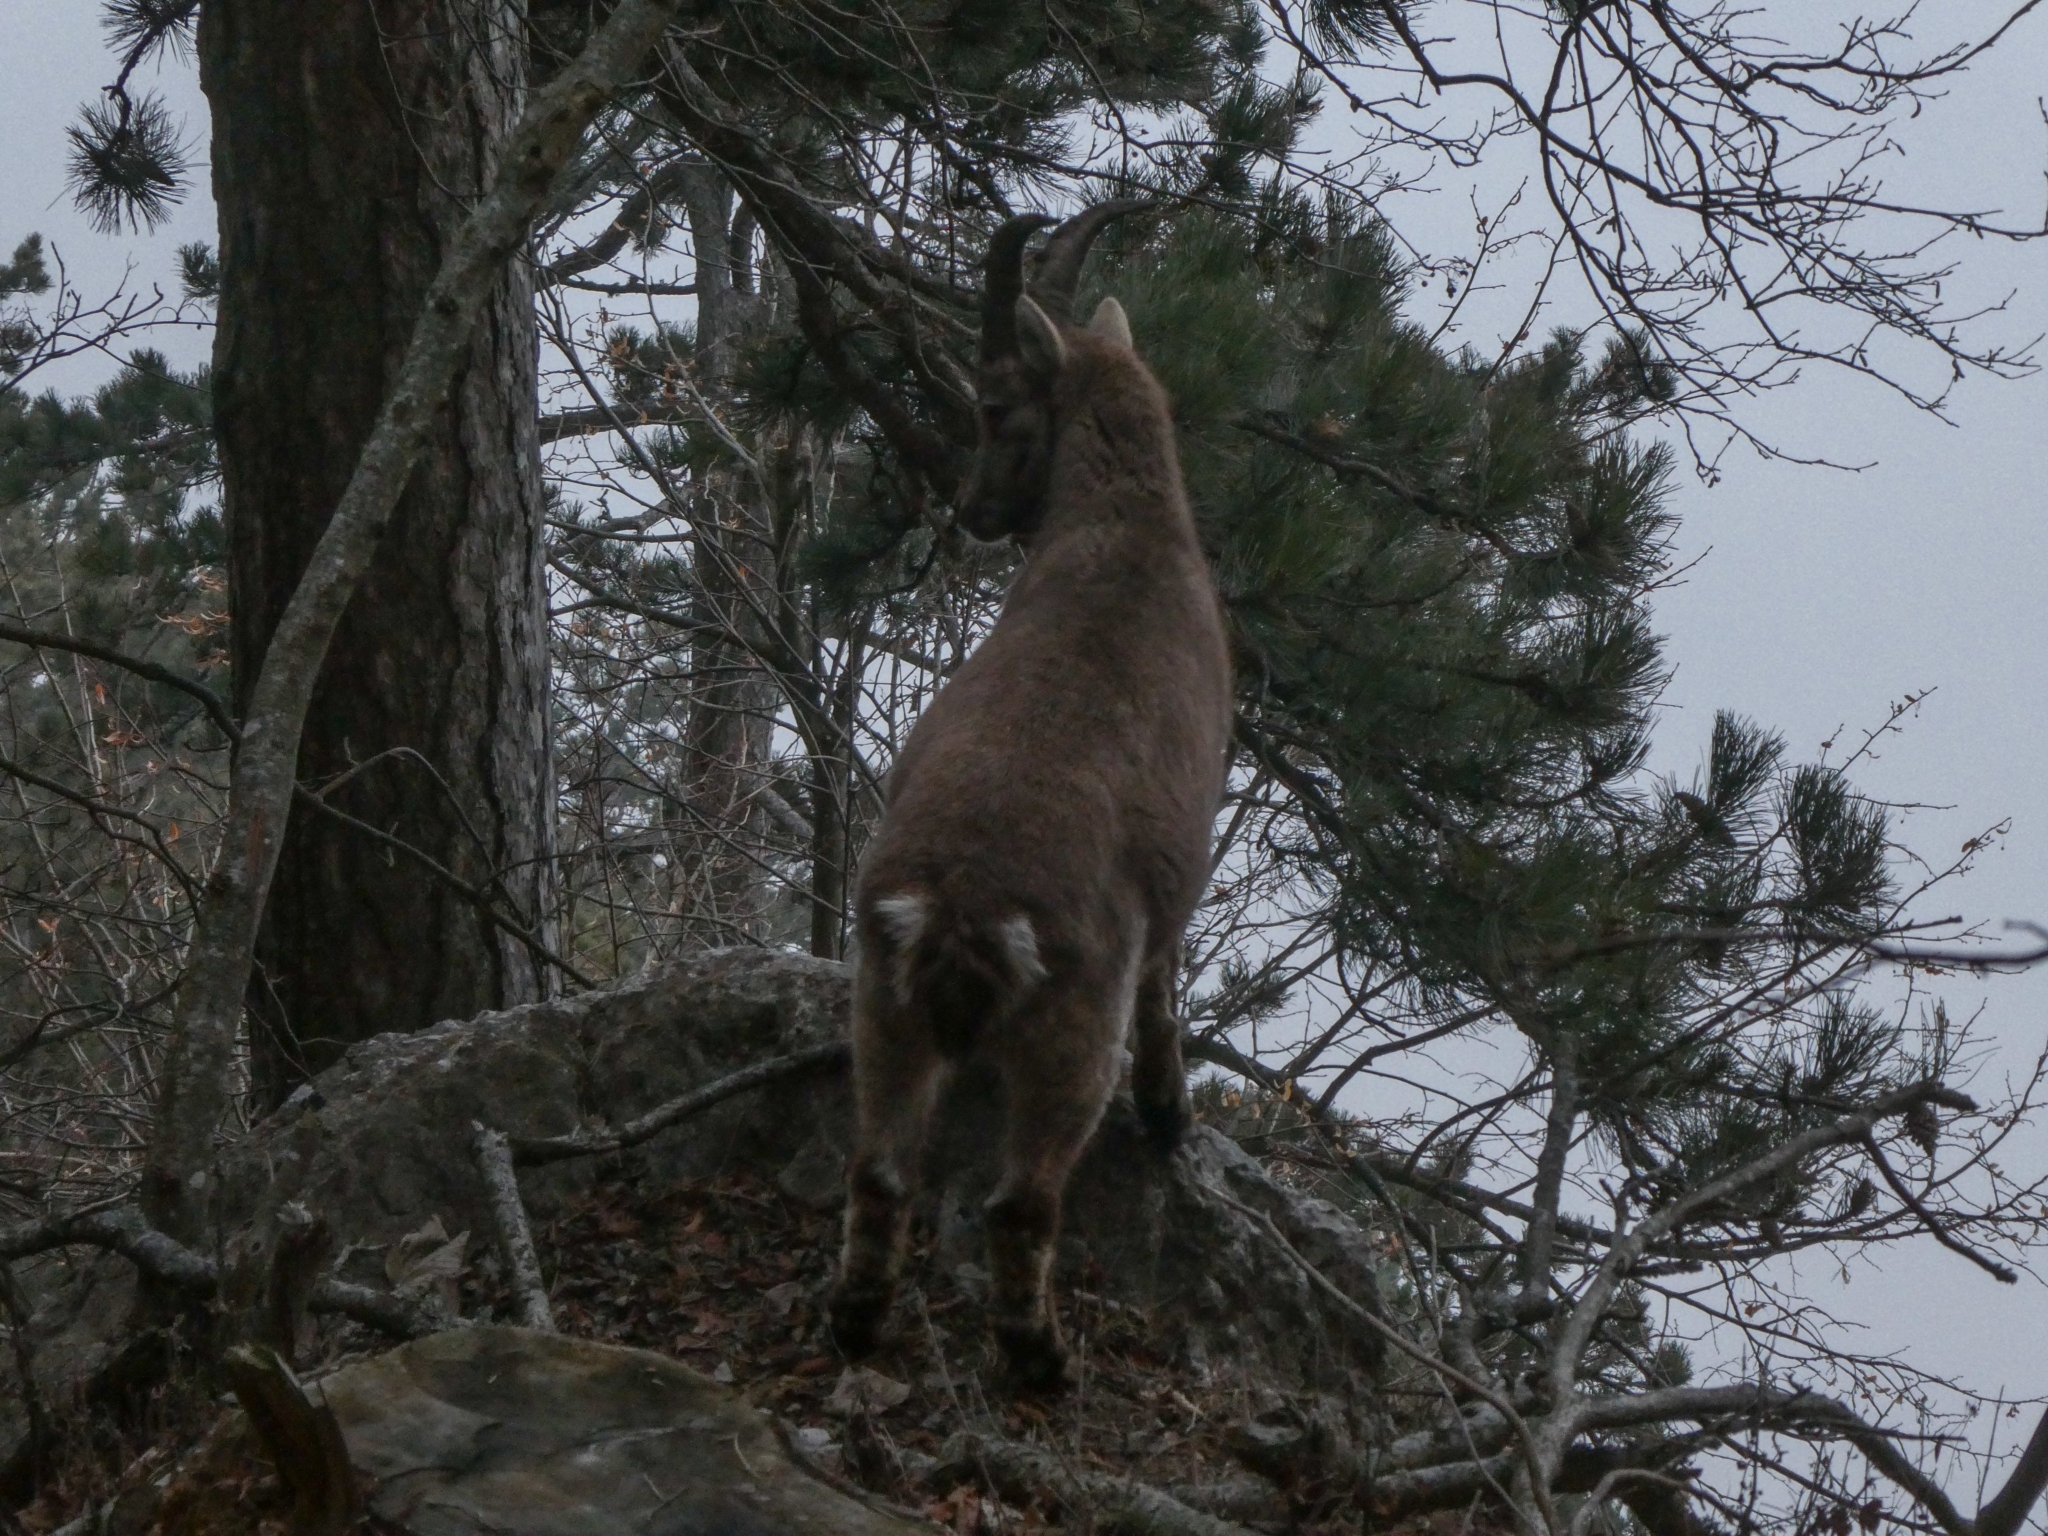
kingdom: Animalia
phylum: Chordata
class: Mammalia
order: Artiodactyla
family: Bovidae
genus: Capra
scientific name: Capra ibex
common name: Alpine ibex
